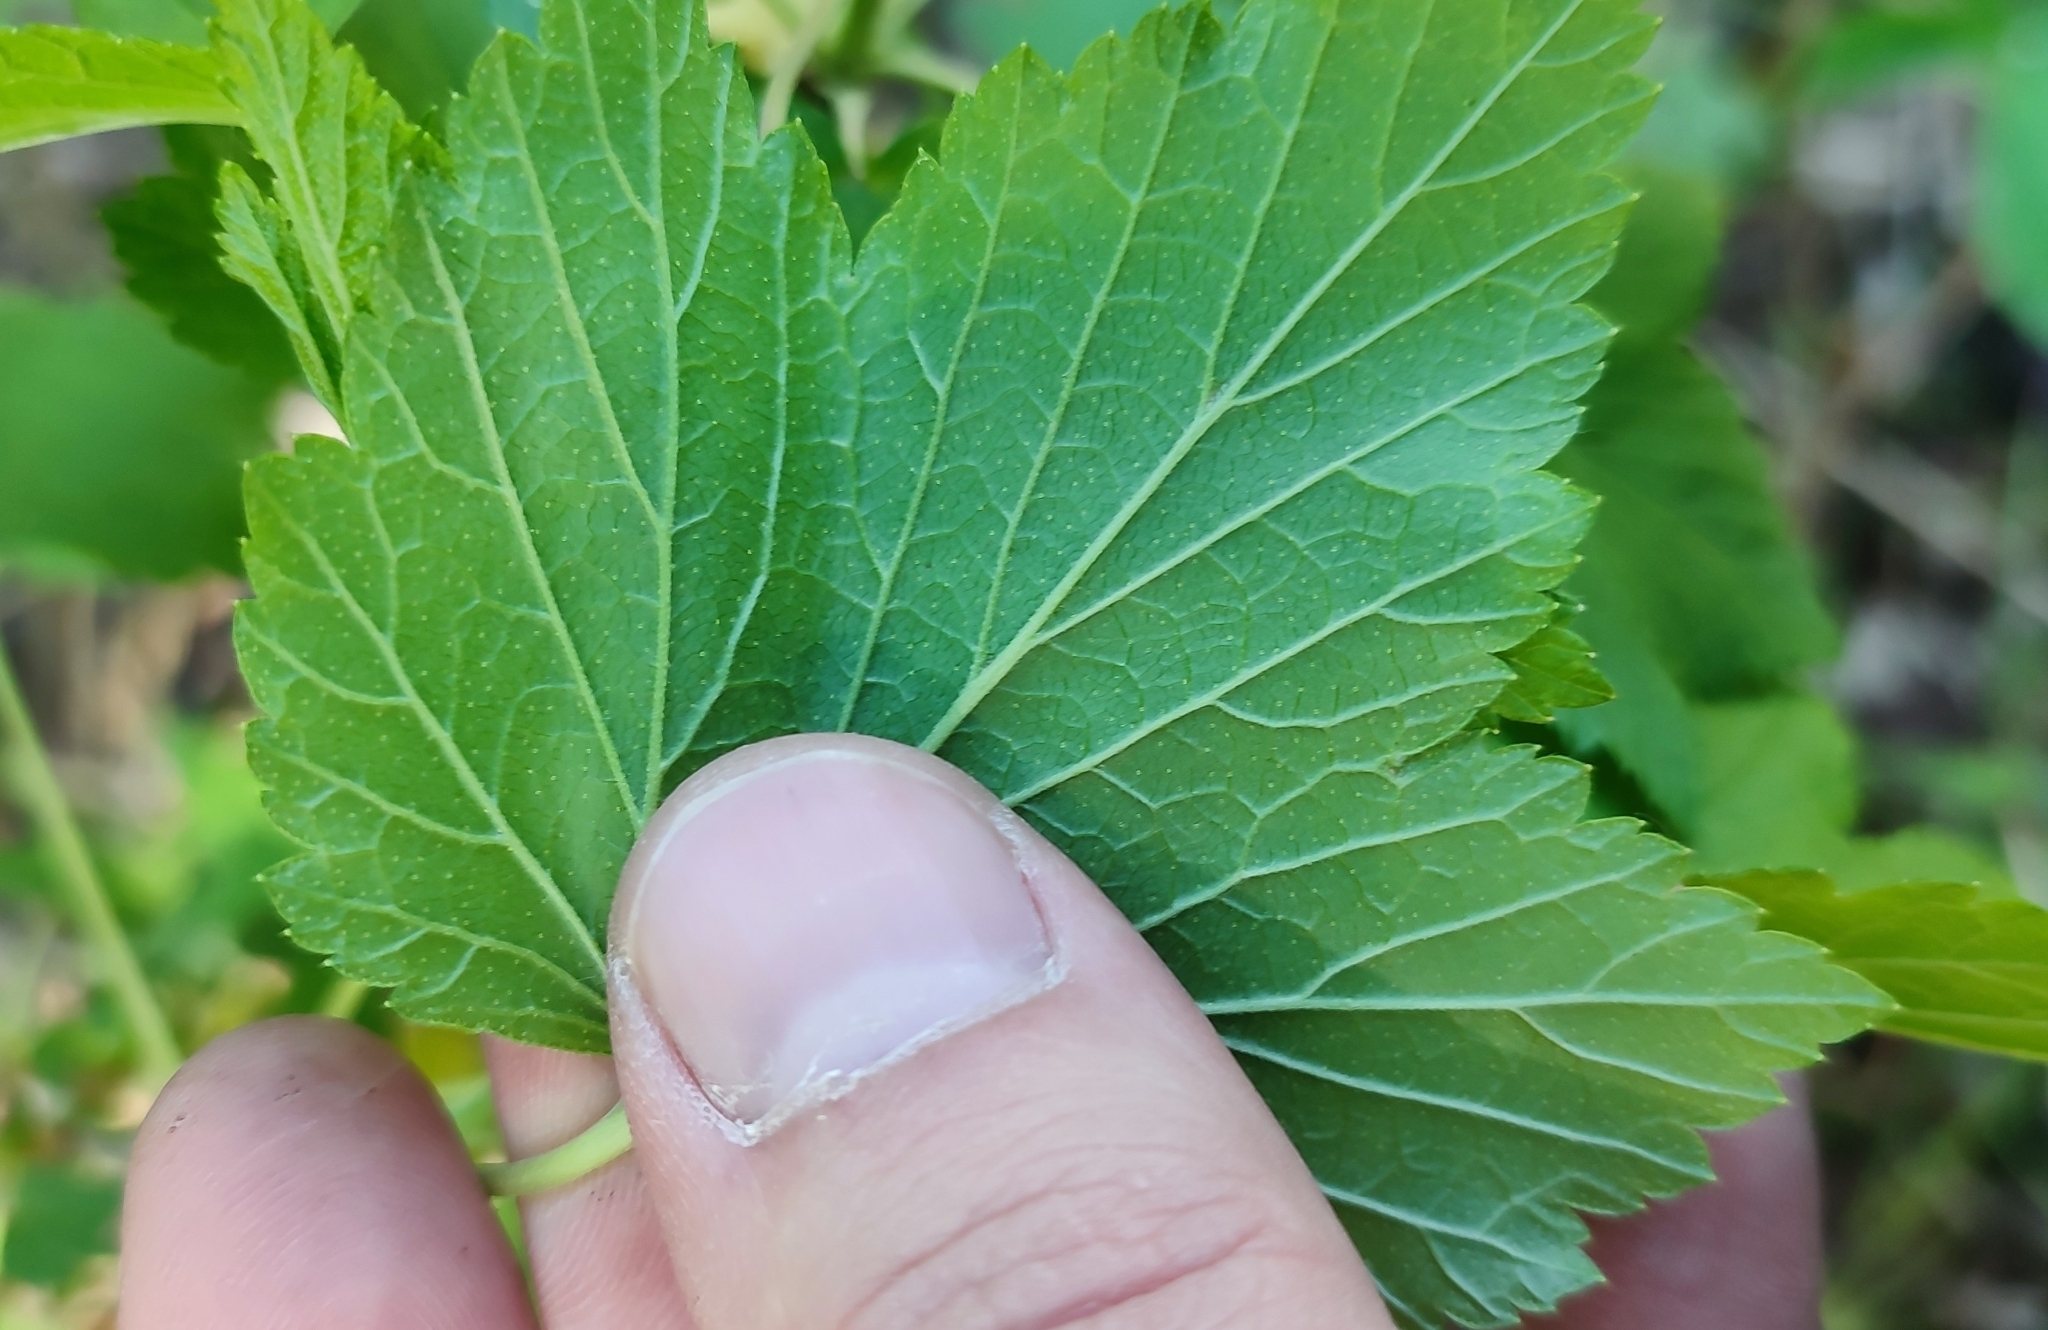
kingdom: Plantae
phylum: Tracheophyta
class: Magnoliopsida
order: Saxifragales
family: Grossulariaceae
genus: Ribes
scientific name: Ribes nigrum
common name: Black currant
